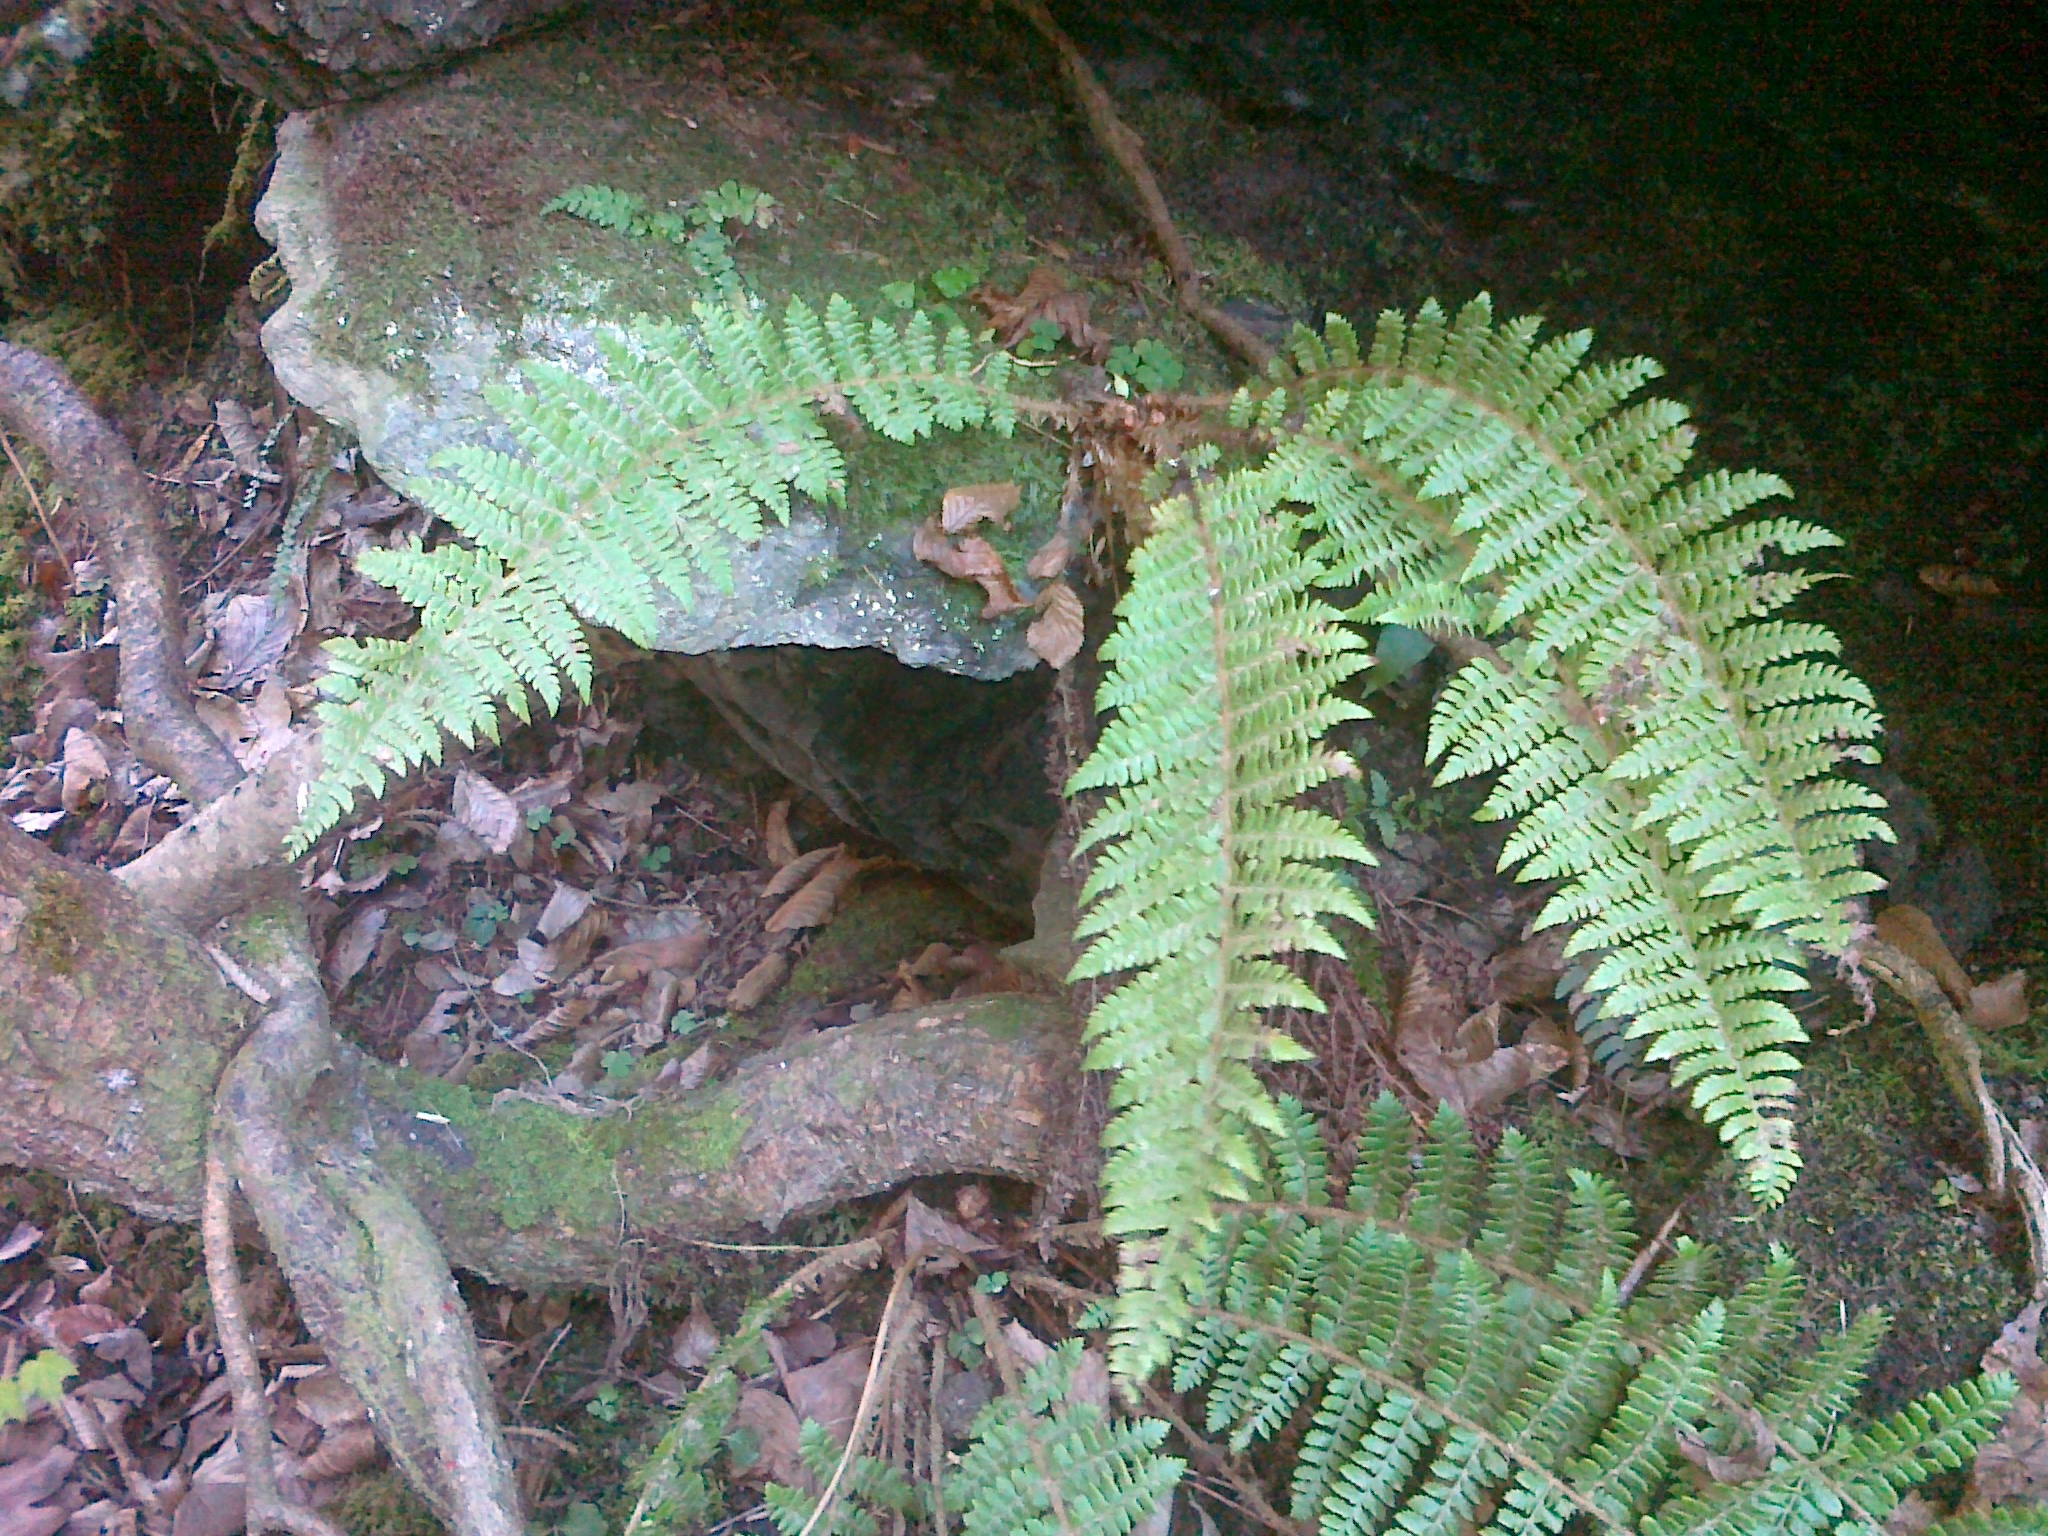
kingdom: Plantae
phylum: Tracheophyta
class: Polypodiopsida
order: Polypodiales
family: Dryopteridaceae
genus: Polystichum
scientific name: Polystichum braunii
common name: Braun's holly fern
